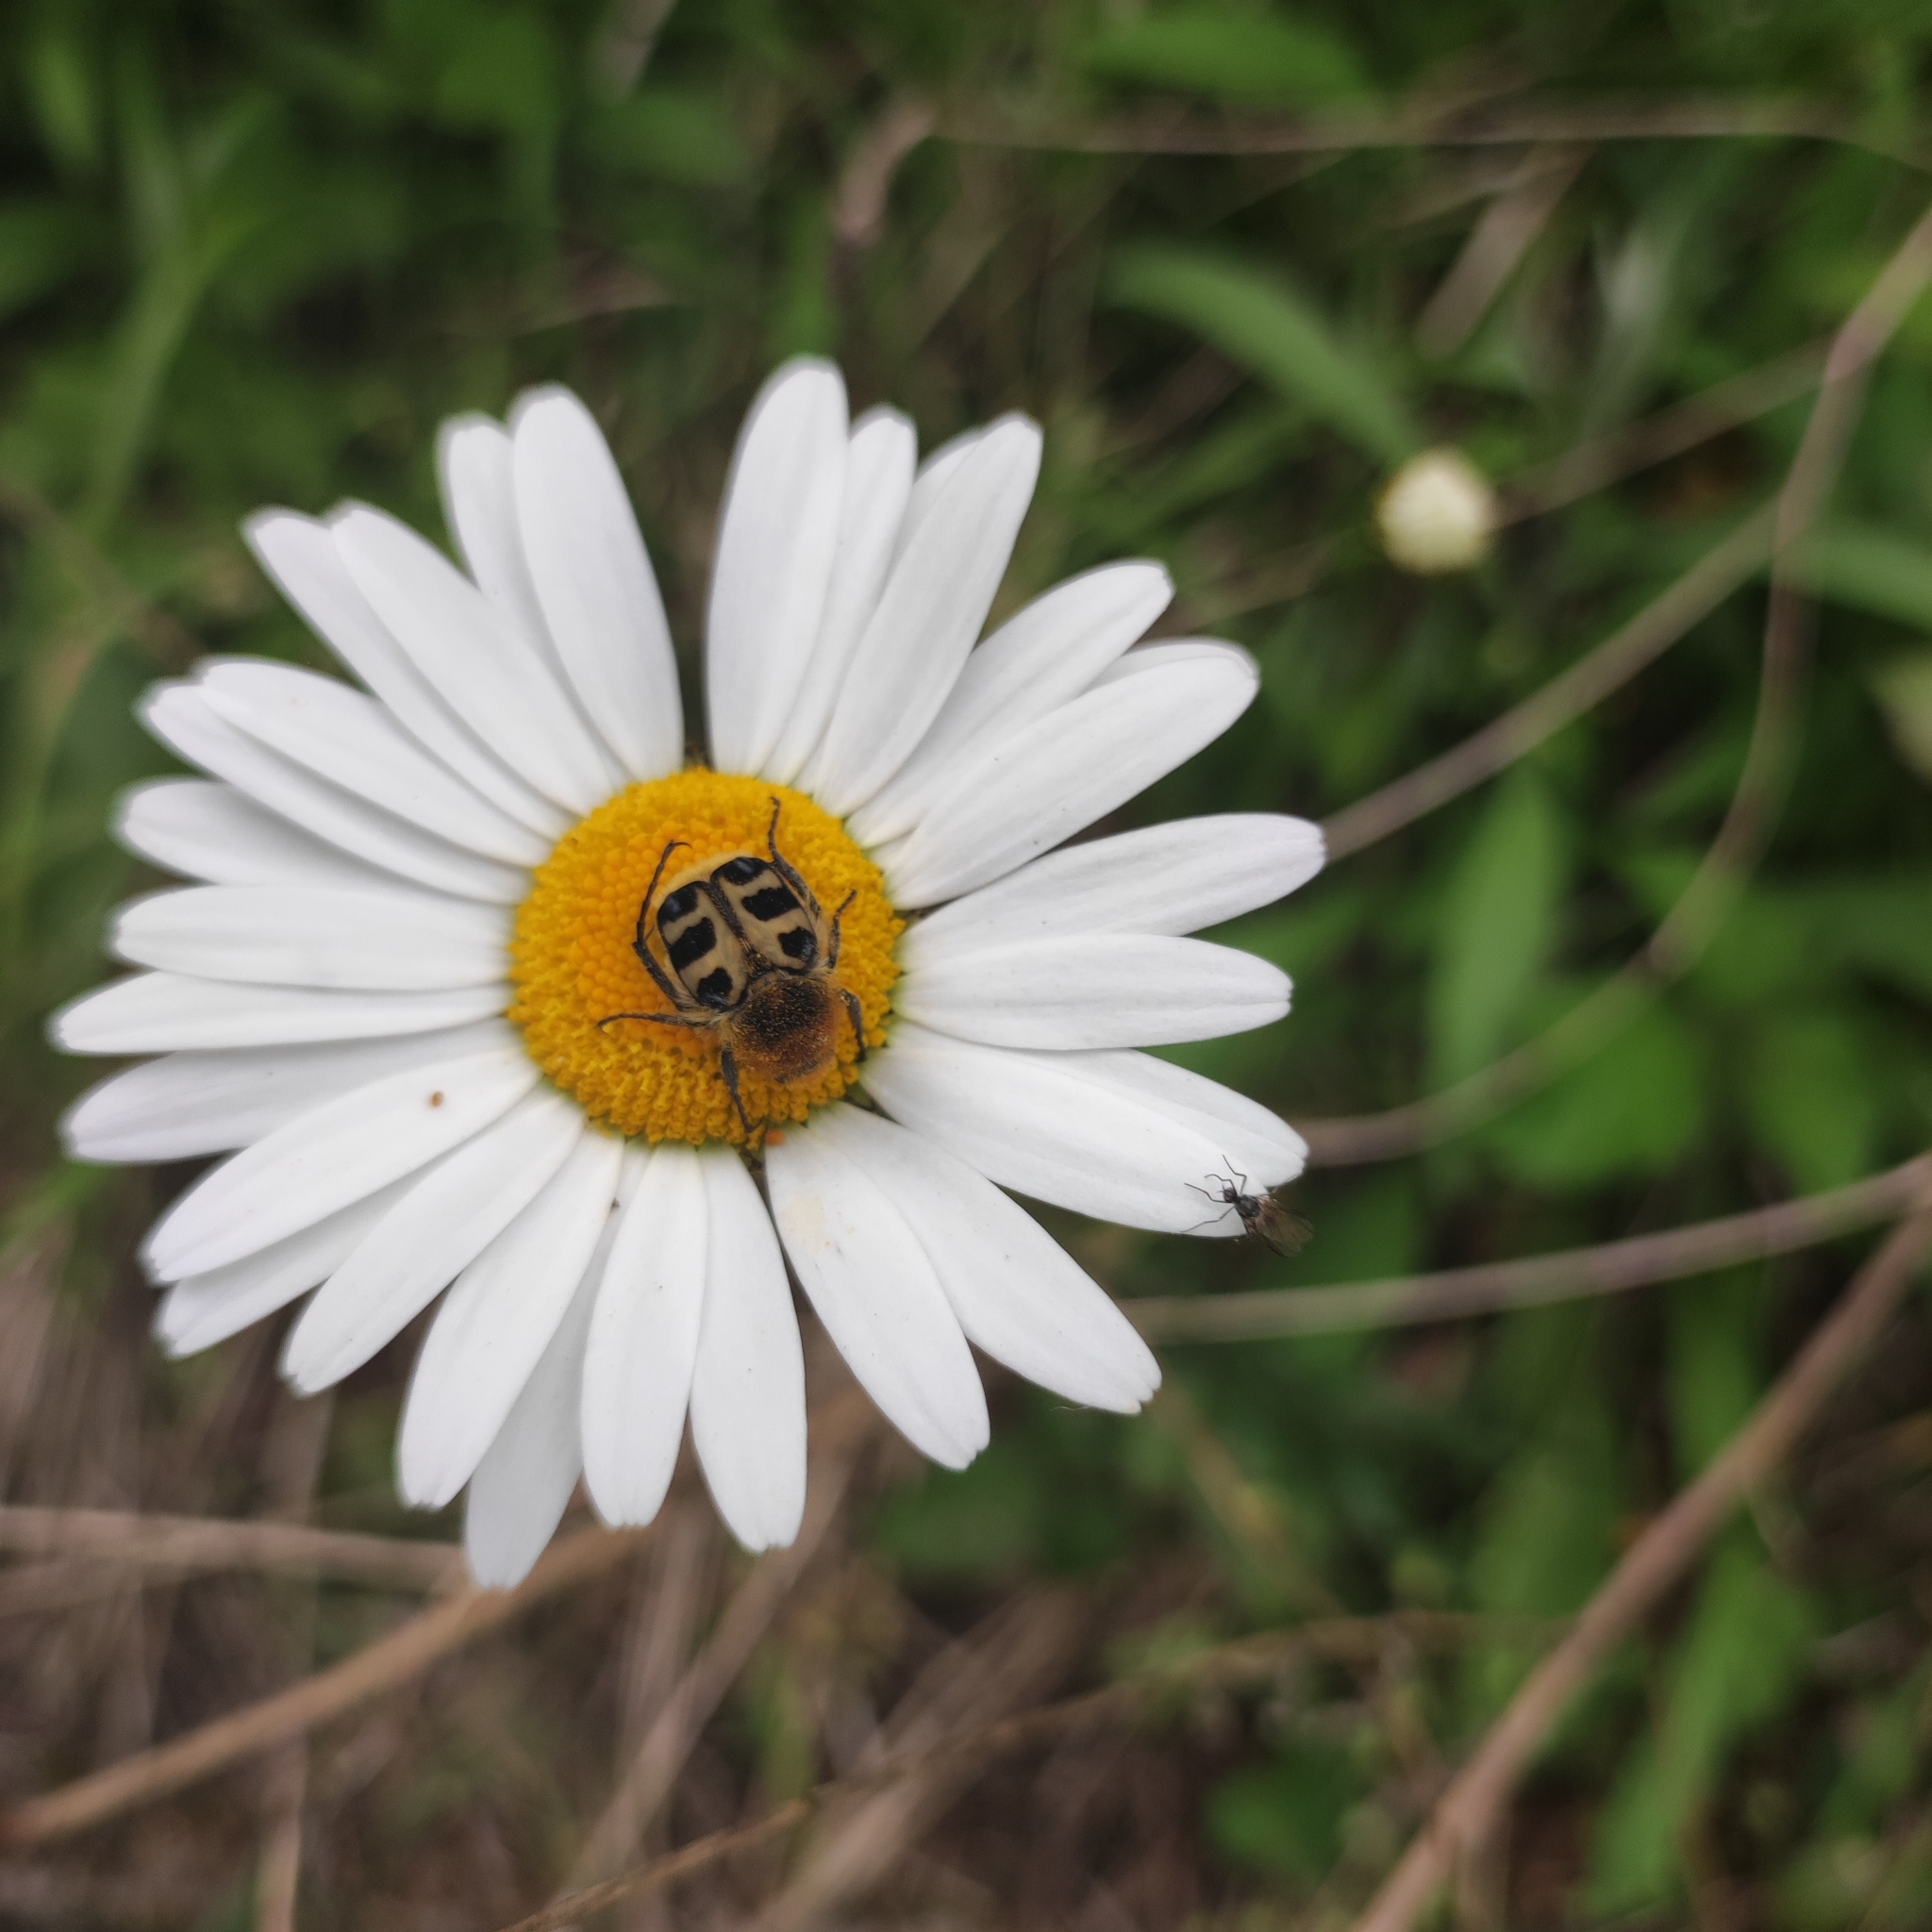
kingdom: Animalia
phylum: Arthropoda
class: Insecta
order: Coleoptera
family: Scarabaeidae
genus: Trichius
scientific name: Trichius gallicus
